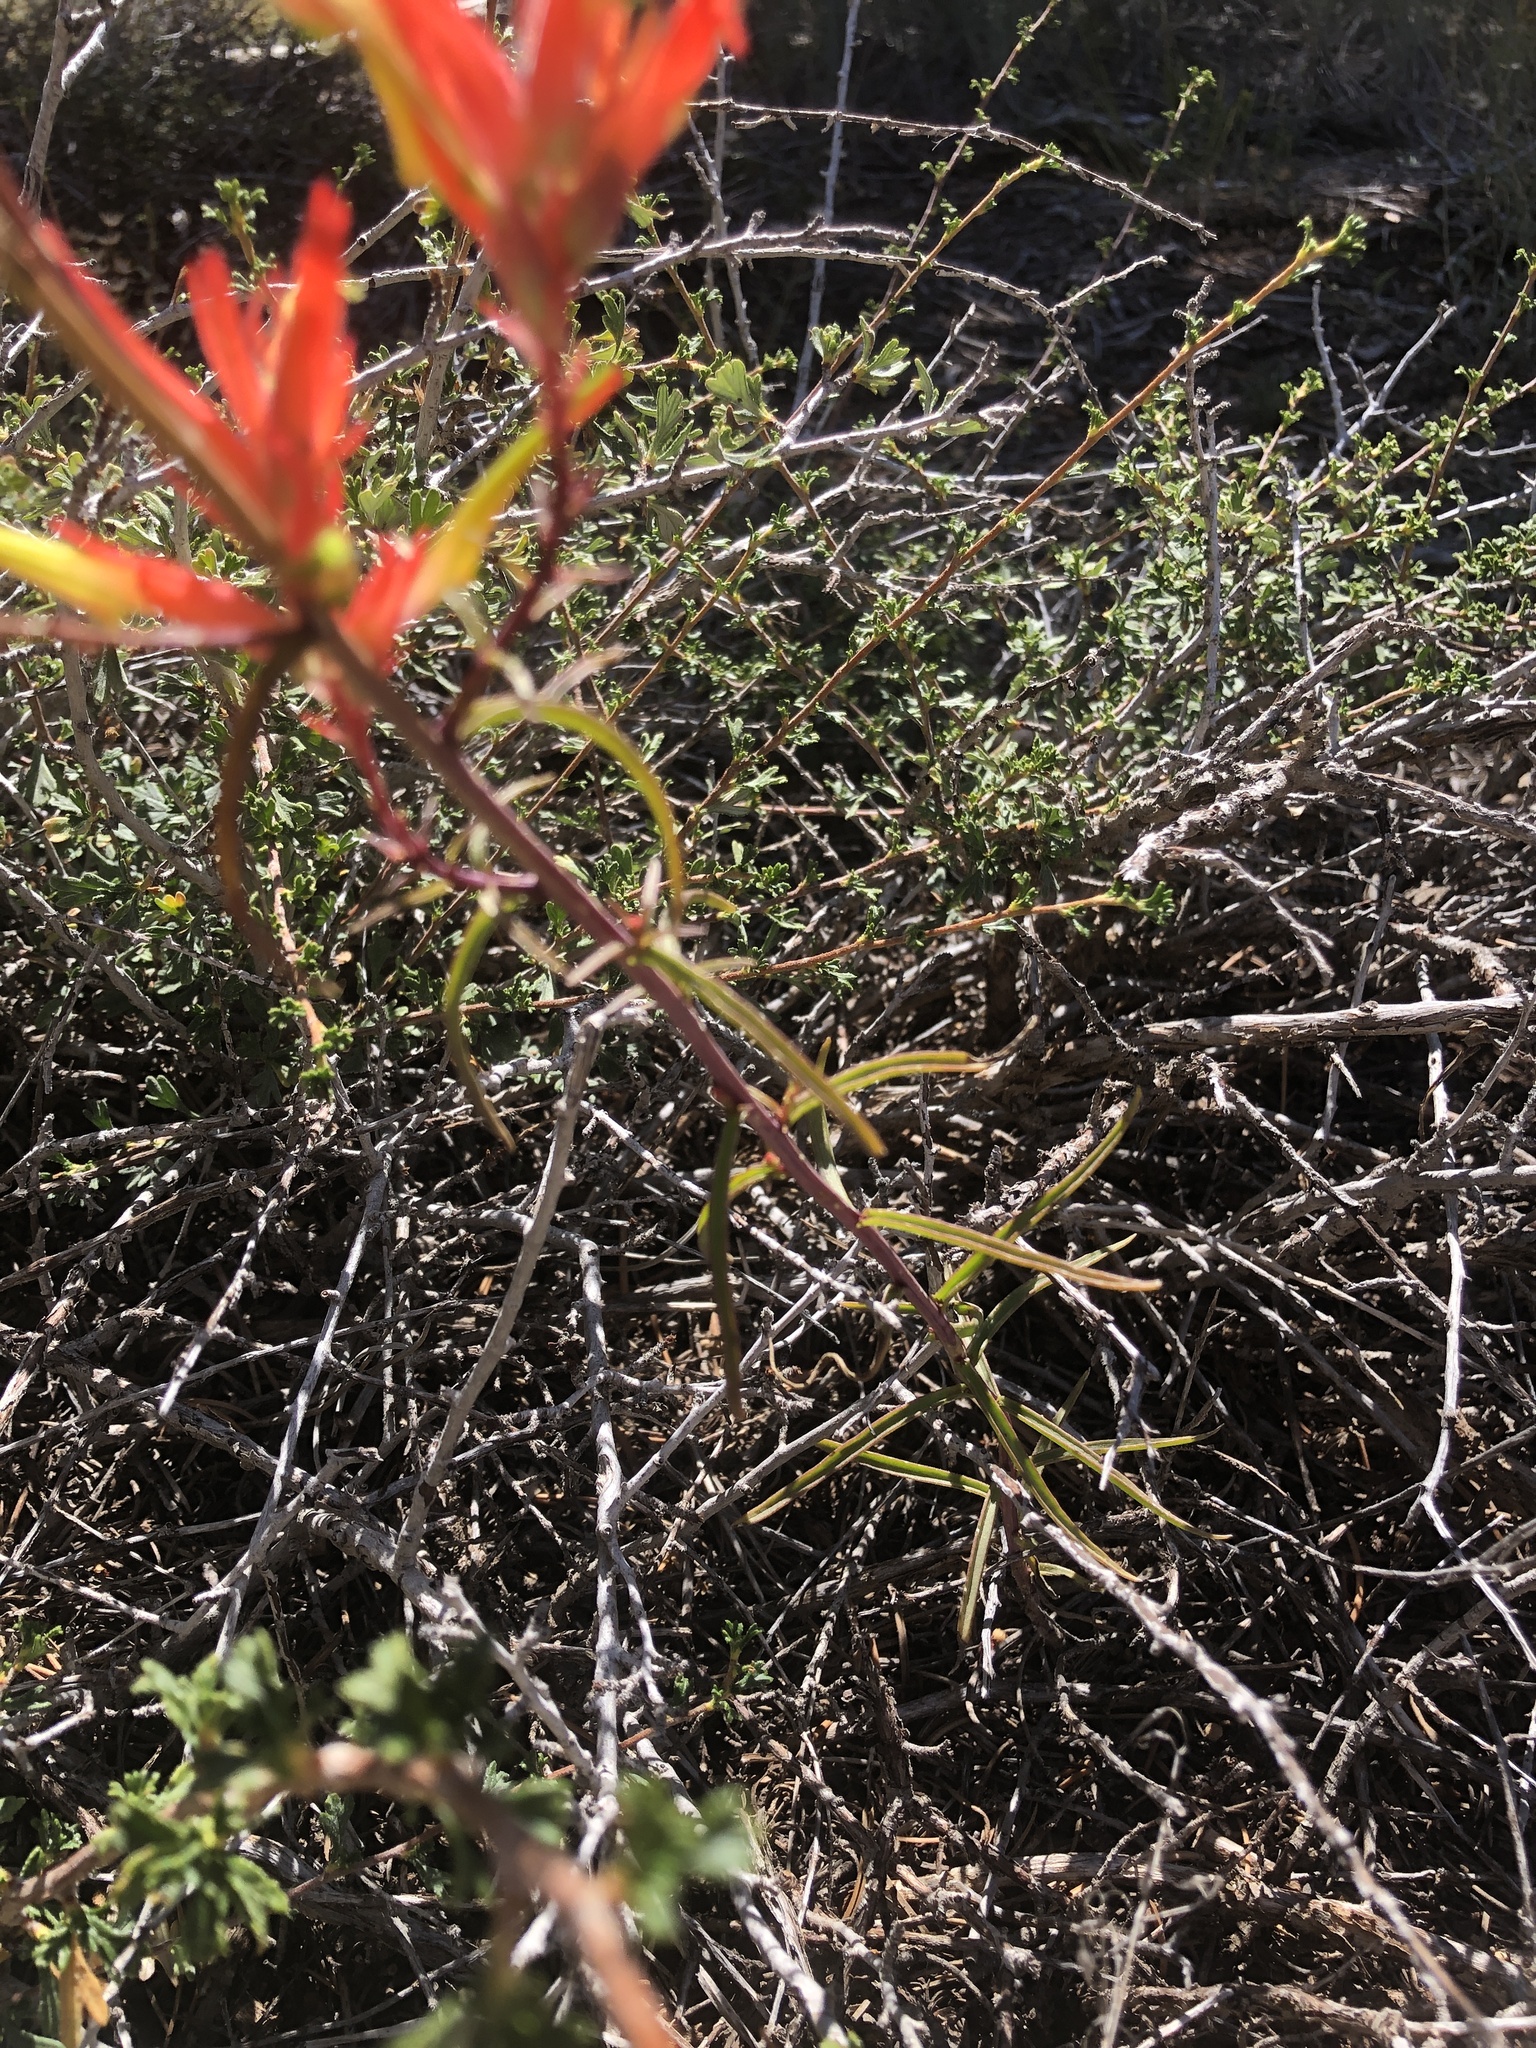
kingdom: Plantae
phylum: Tracheophyta
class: Magnoliopsida
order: Lamiales
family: Orobanchaceae
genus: Castilleja
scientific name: Castilleja linariifolia
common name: Wyoming paintbrush
